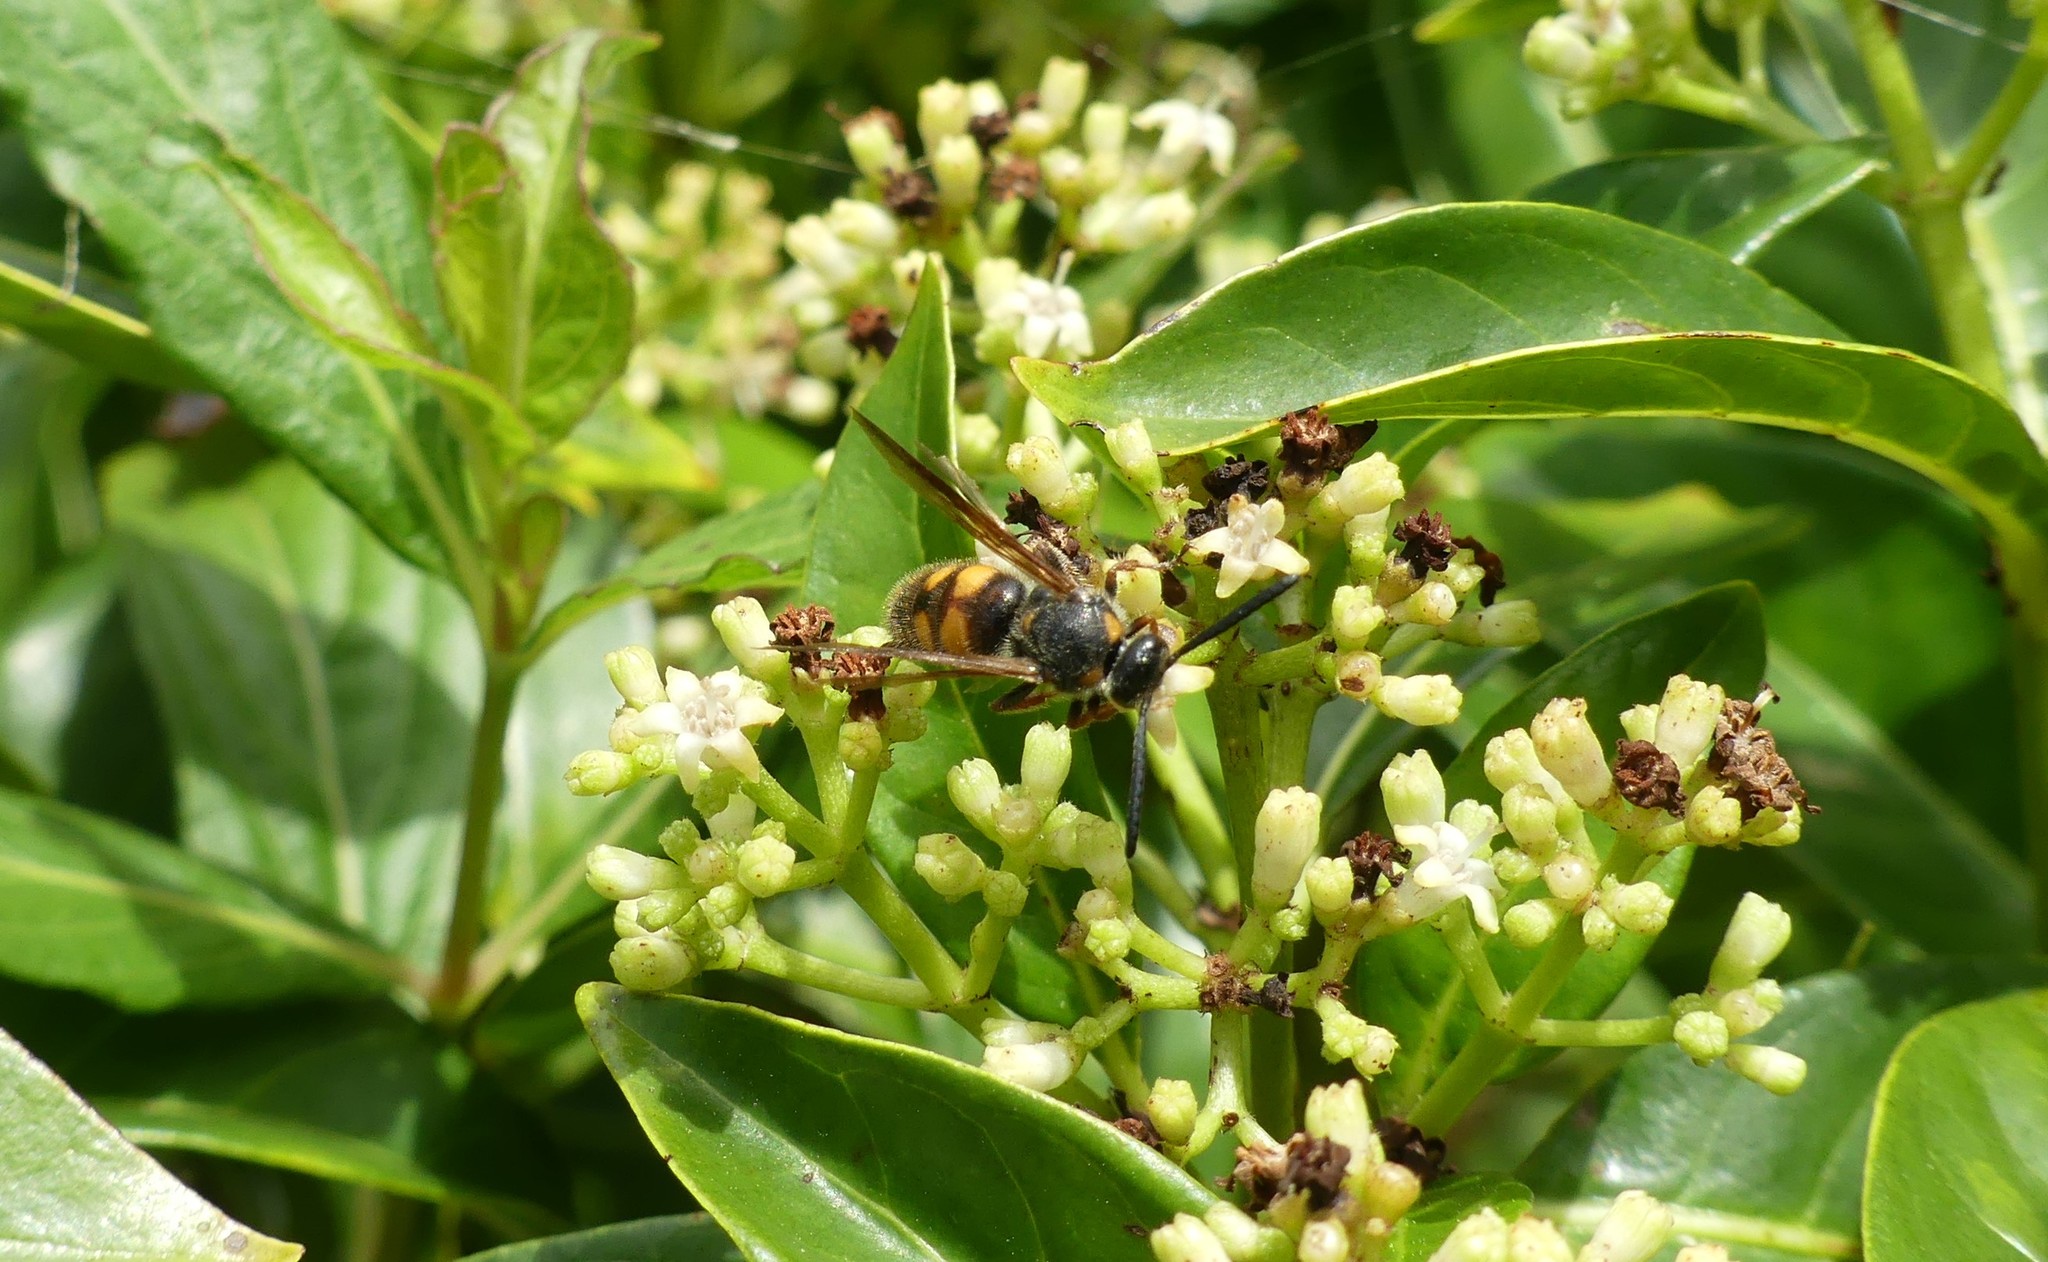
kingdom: Animalia
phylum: Arthropoda
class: Insecta
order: Hymenoptera
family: Scoliidae
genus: Scolia
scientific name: Scolia nobilitata
